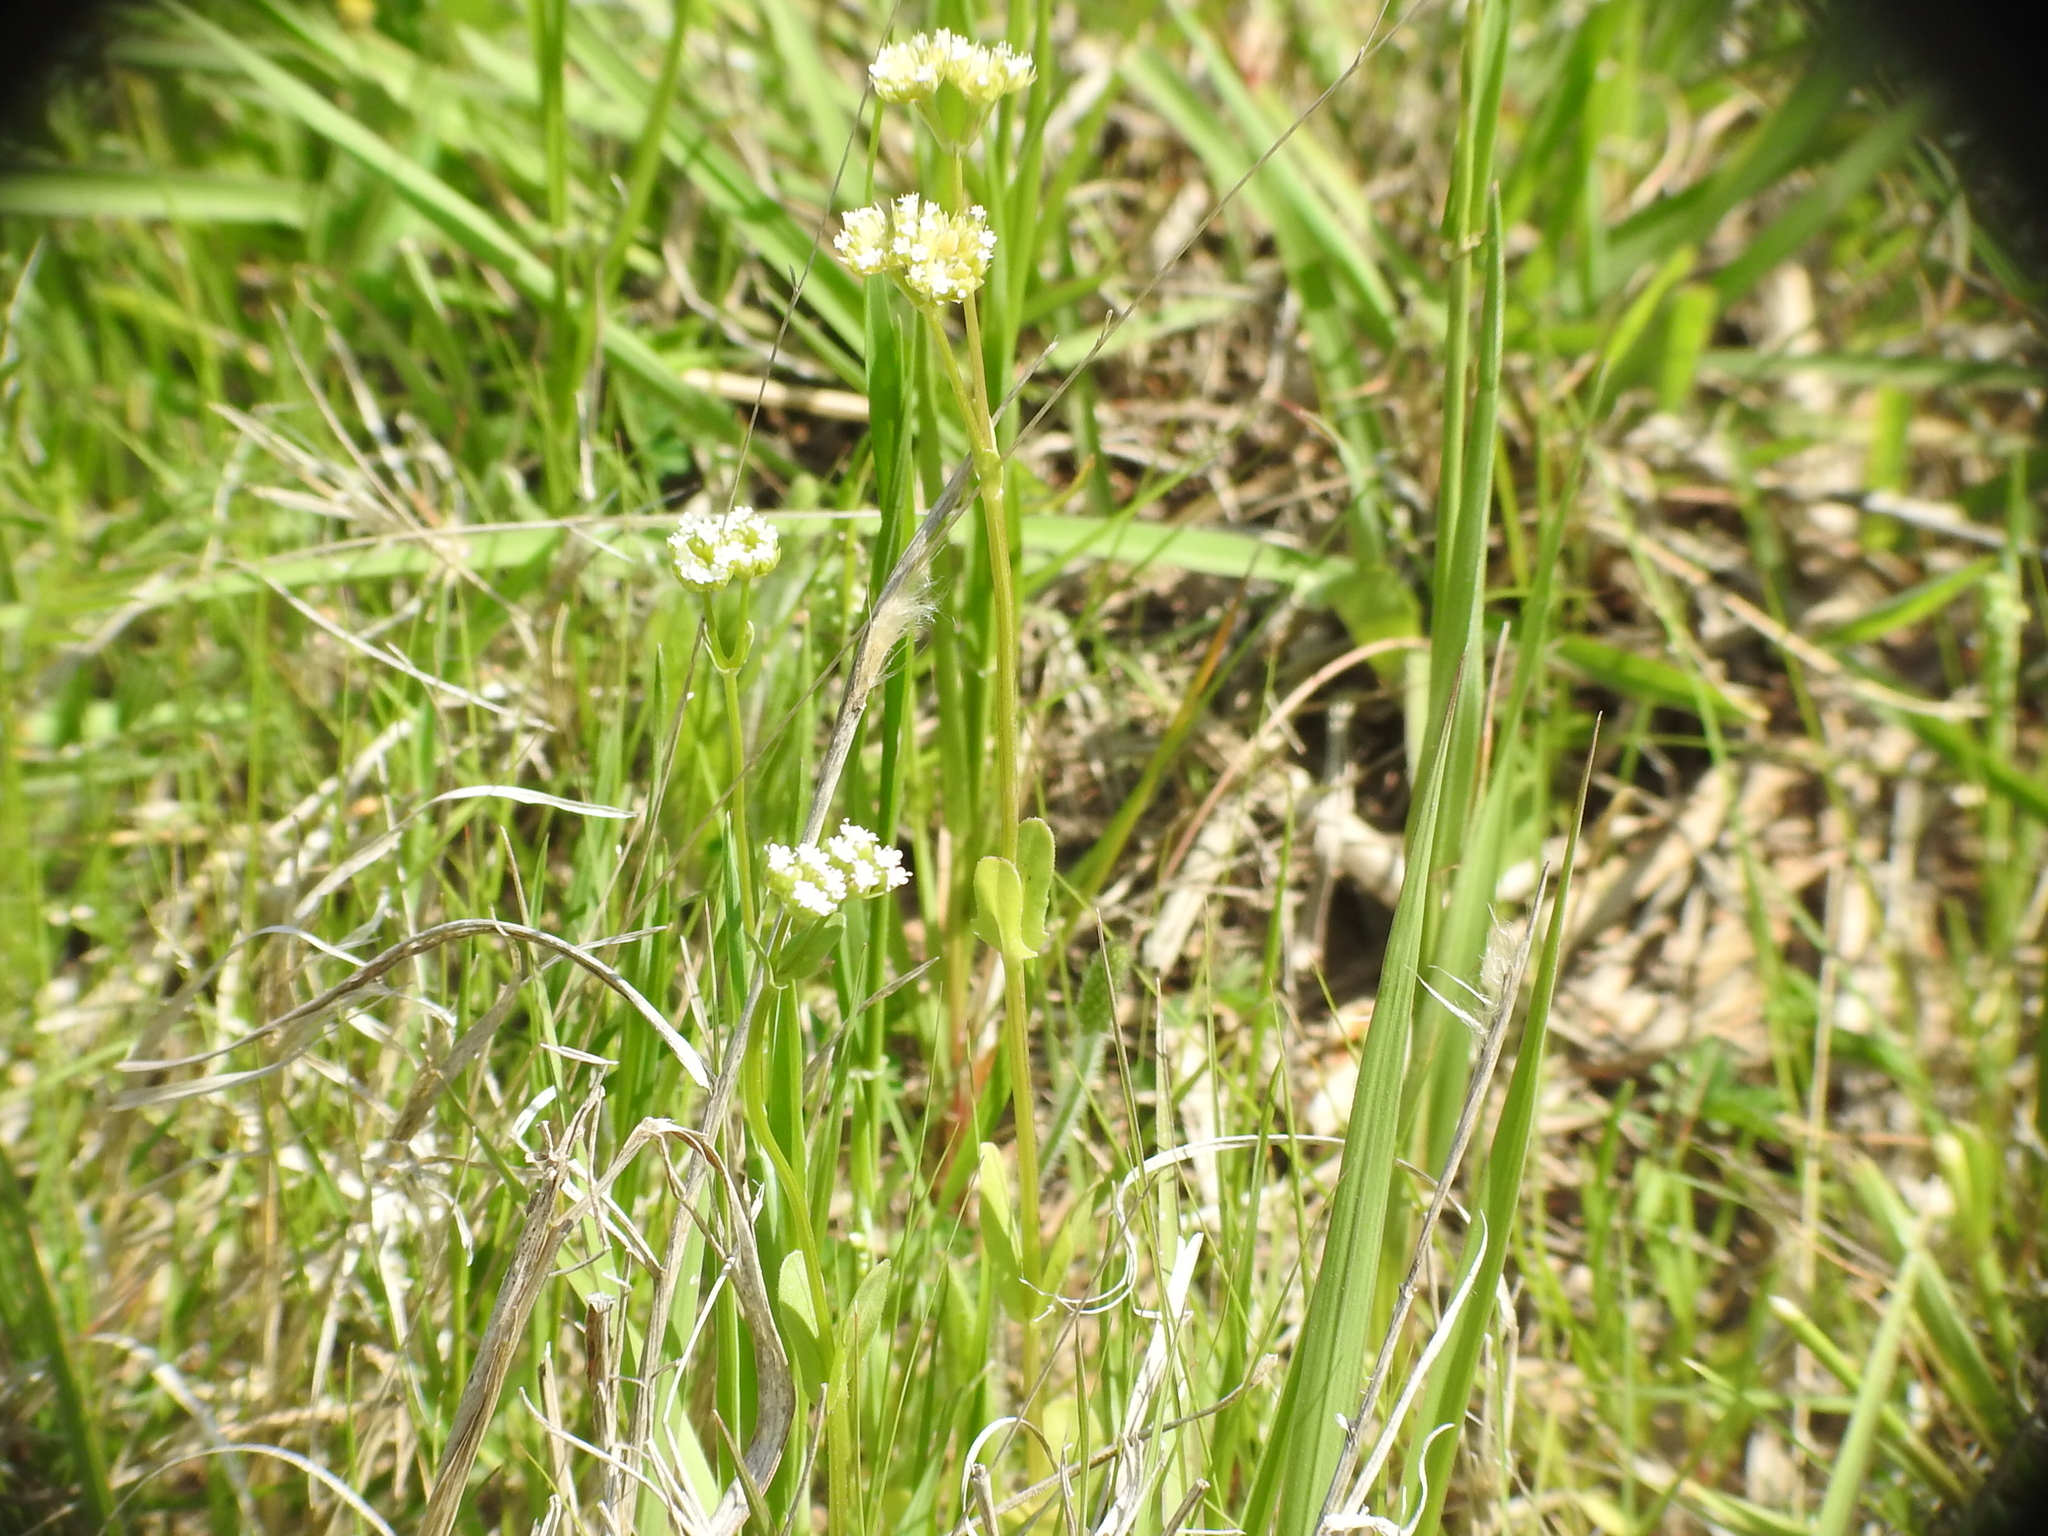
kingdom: Plantae
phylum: Tracheophyta
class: Magnoliopsida
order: Dipsacales
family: Caprifoliaceae
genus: Valerianella
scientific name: Valerianella radiata
